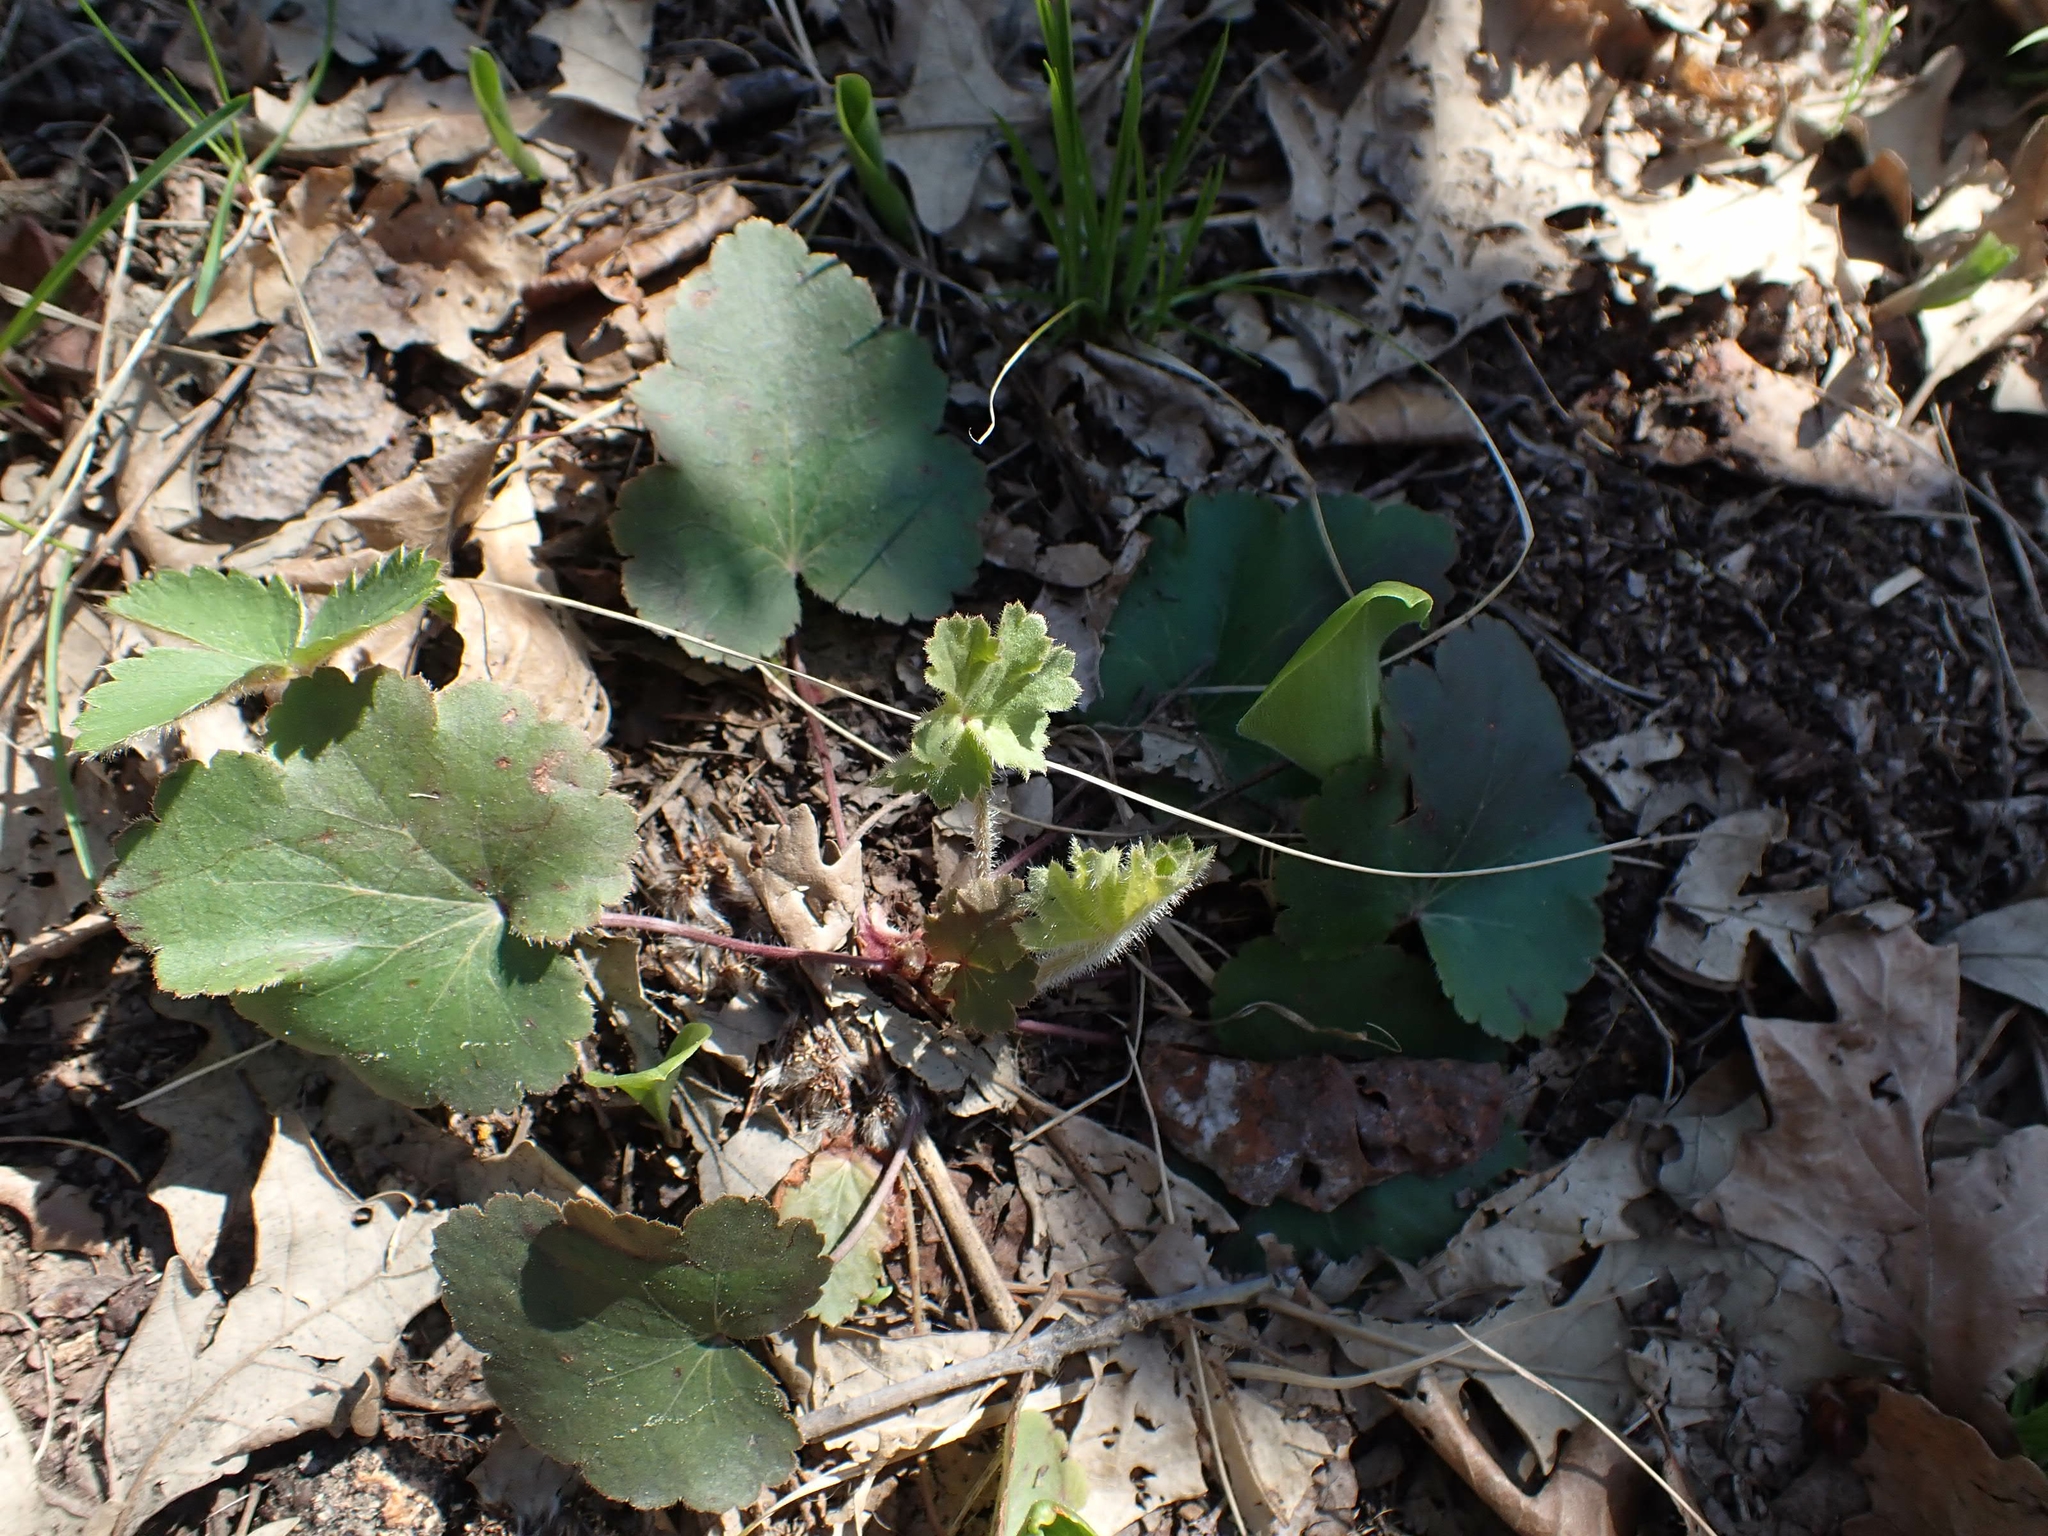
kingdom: Plantae
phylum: Tracheophyta
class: Magnoliopsida
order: Saxifragales
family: Saxifragaceae
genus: Heuchera
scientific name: Heuchera richardsonii
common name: Richardson's alumroot
